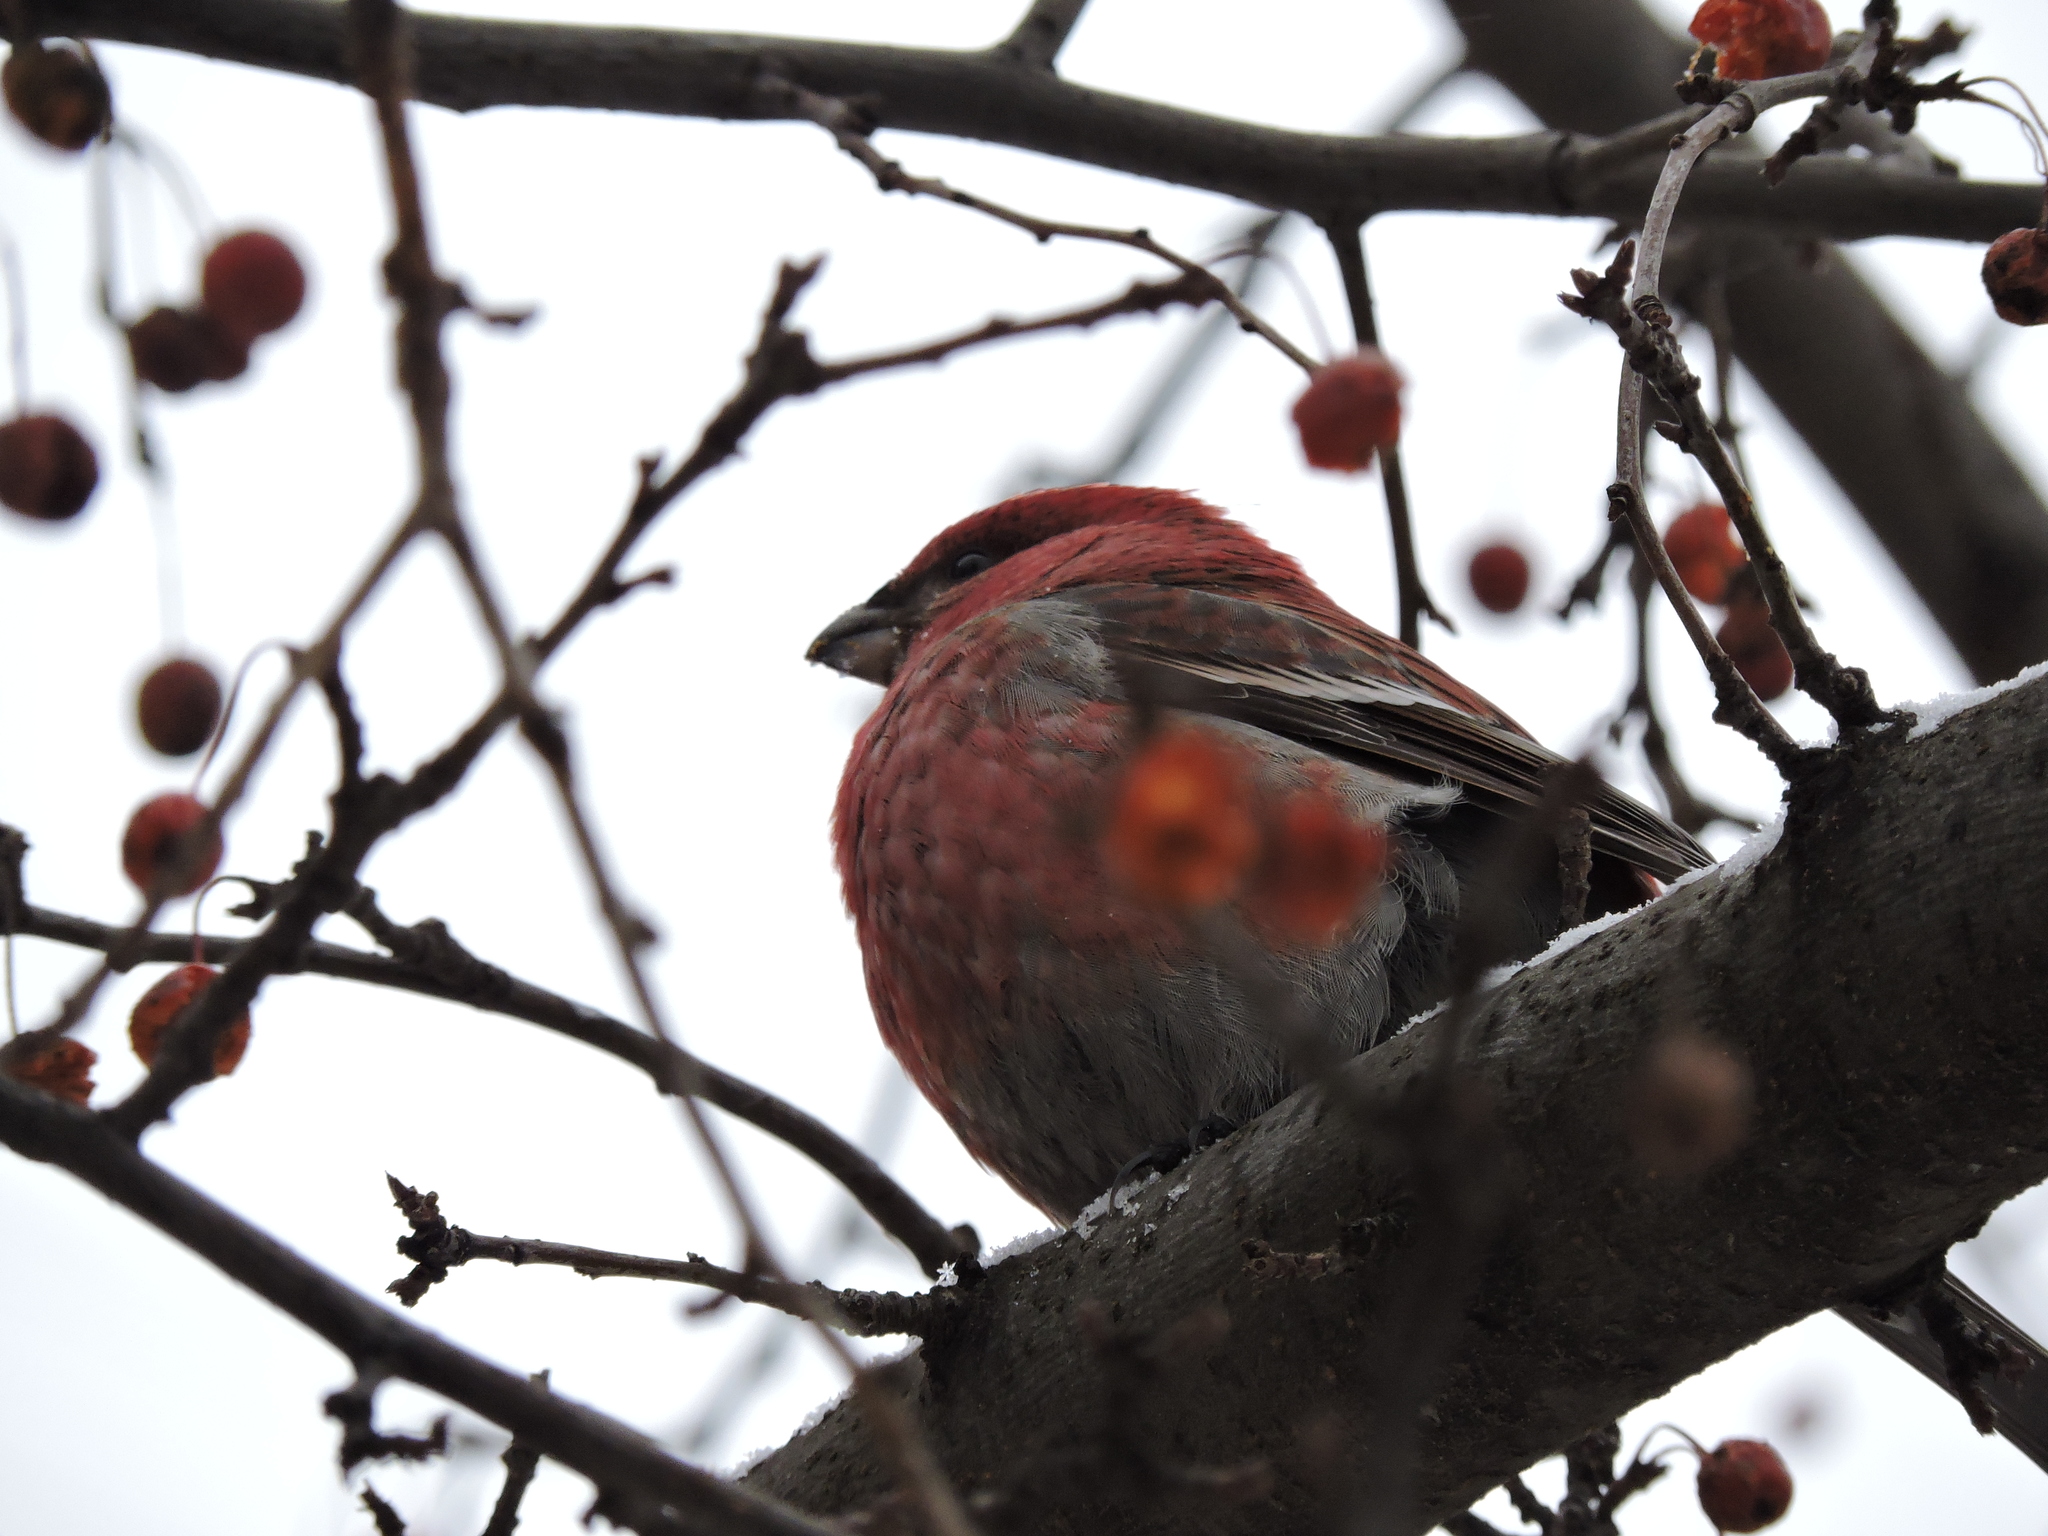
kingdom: Animalia
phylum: Chordata
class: Aves
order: Passeriformes
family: Fringillidae
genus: Pinicola
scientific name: Pinicola enucleator
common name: Pine grosbeak
